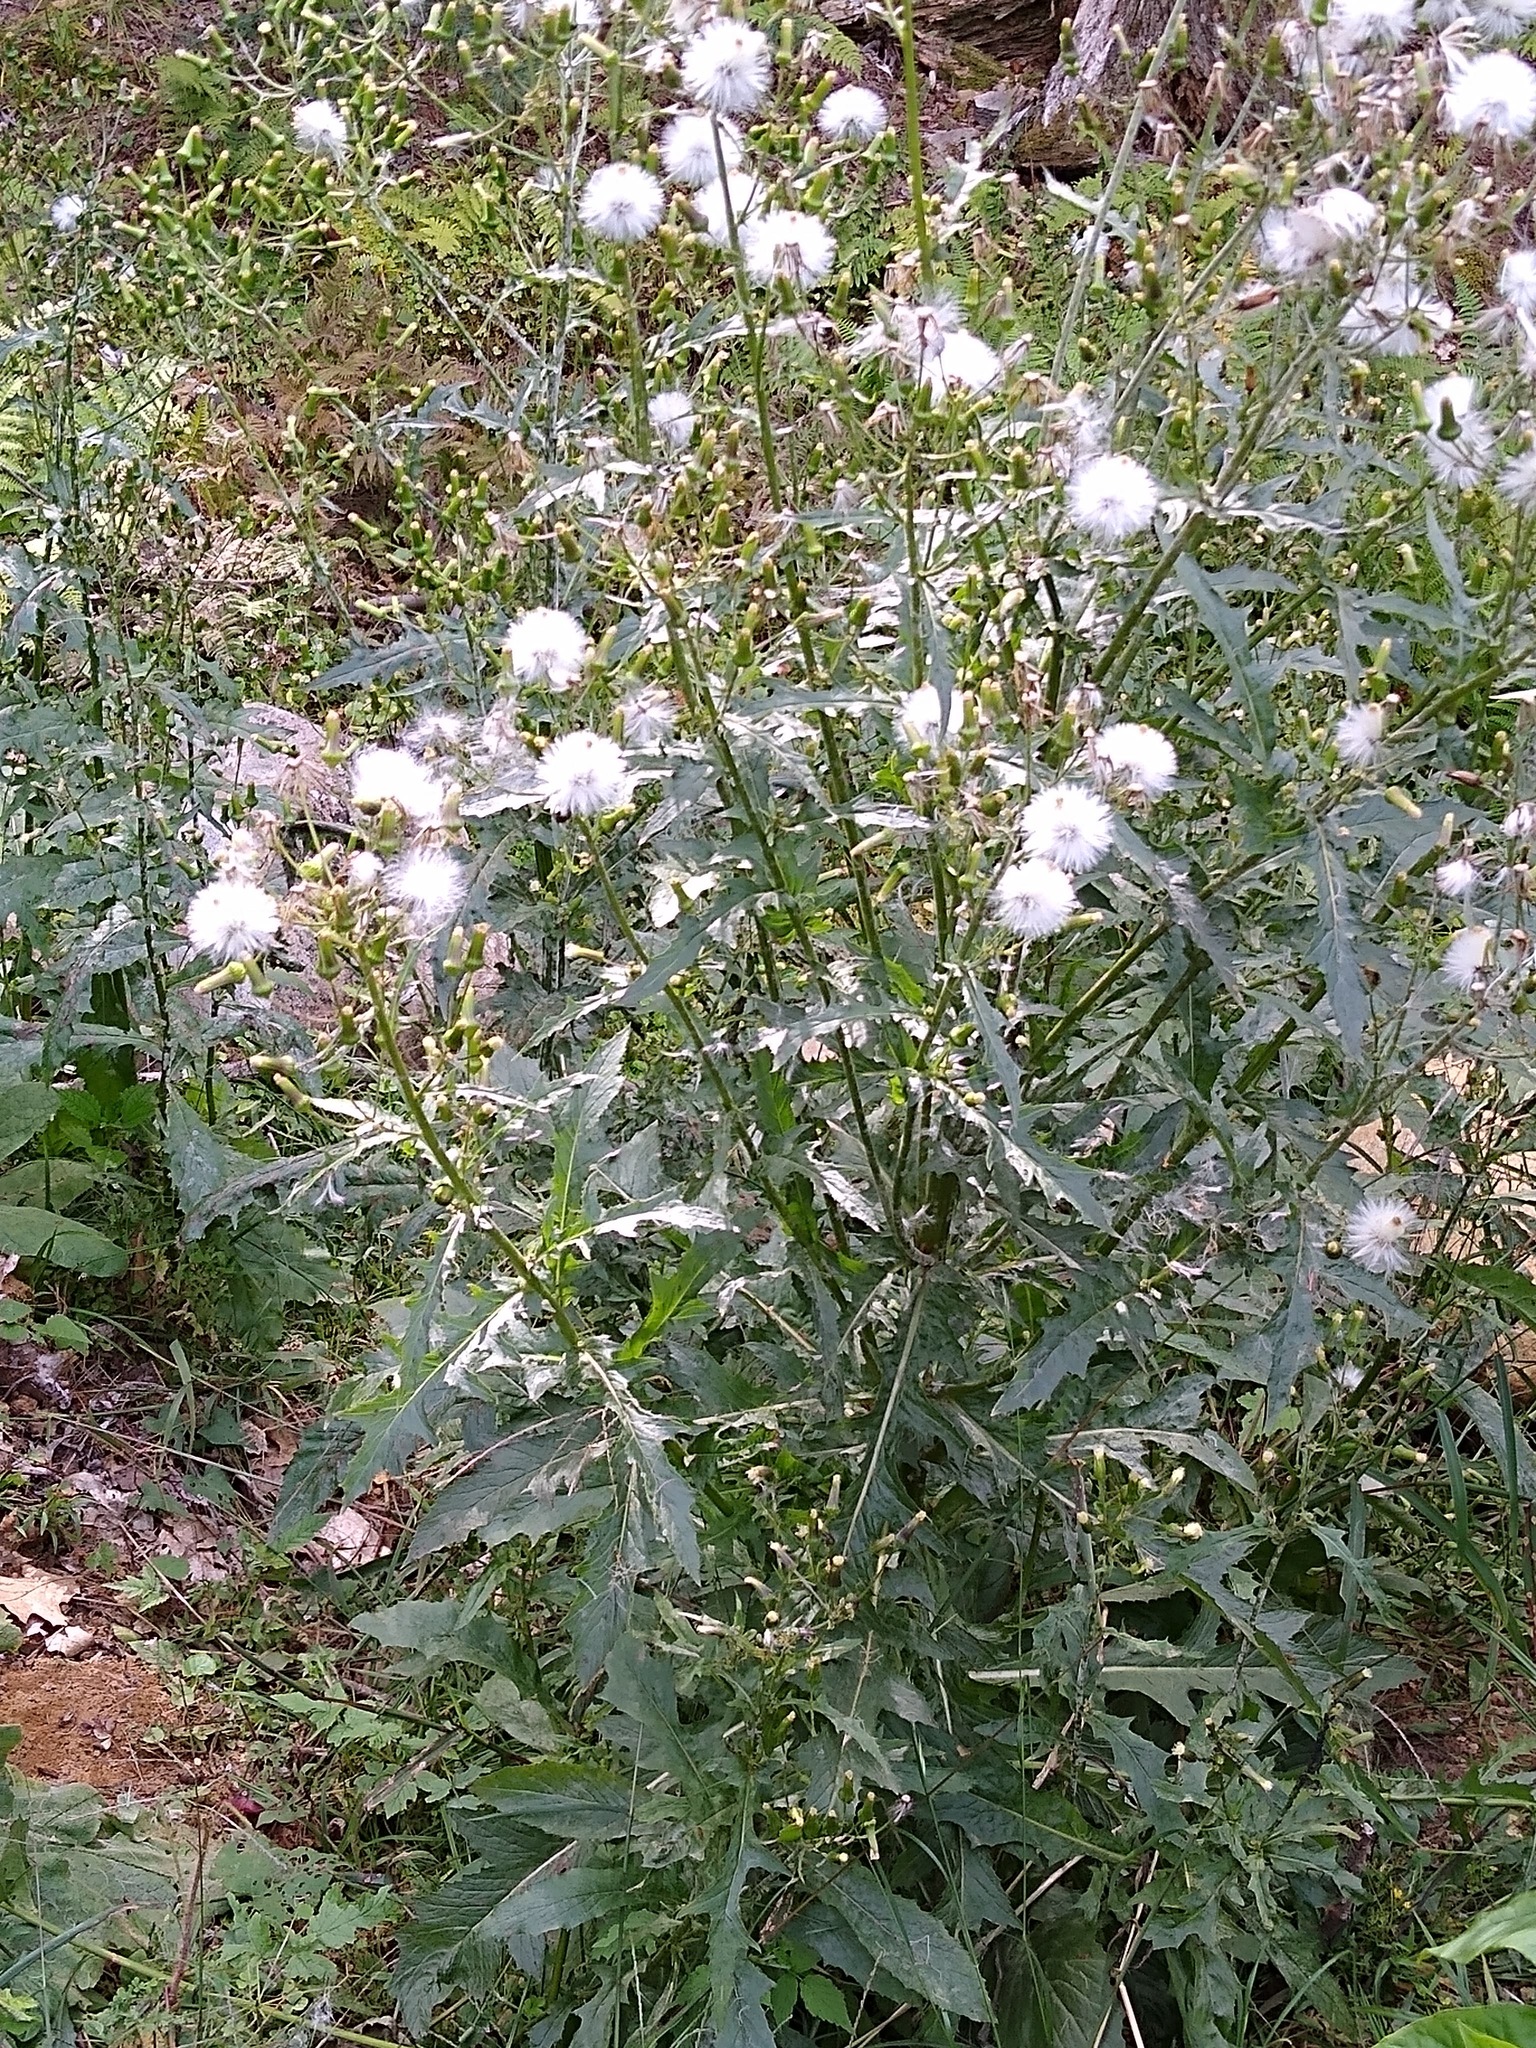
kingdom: Plantae
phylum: Tracheophyta
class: Magnoliopsida
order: Asterales
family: Asteraceae
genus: Erechtites
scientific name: Erechtites hieraciifolius
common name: American burnweed
